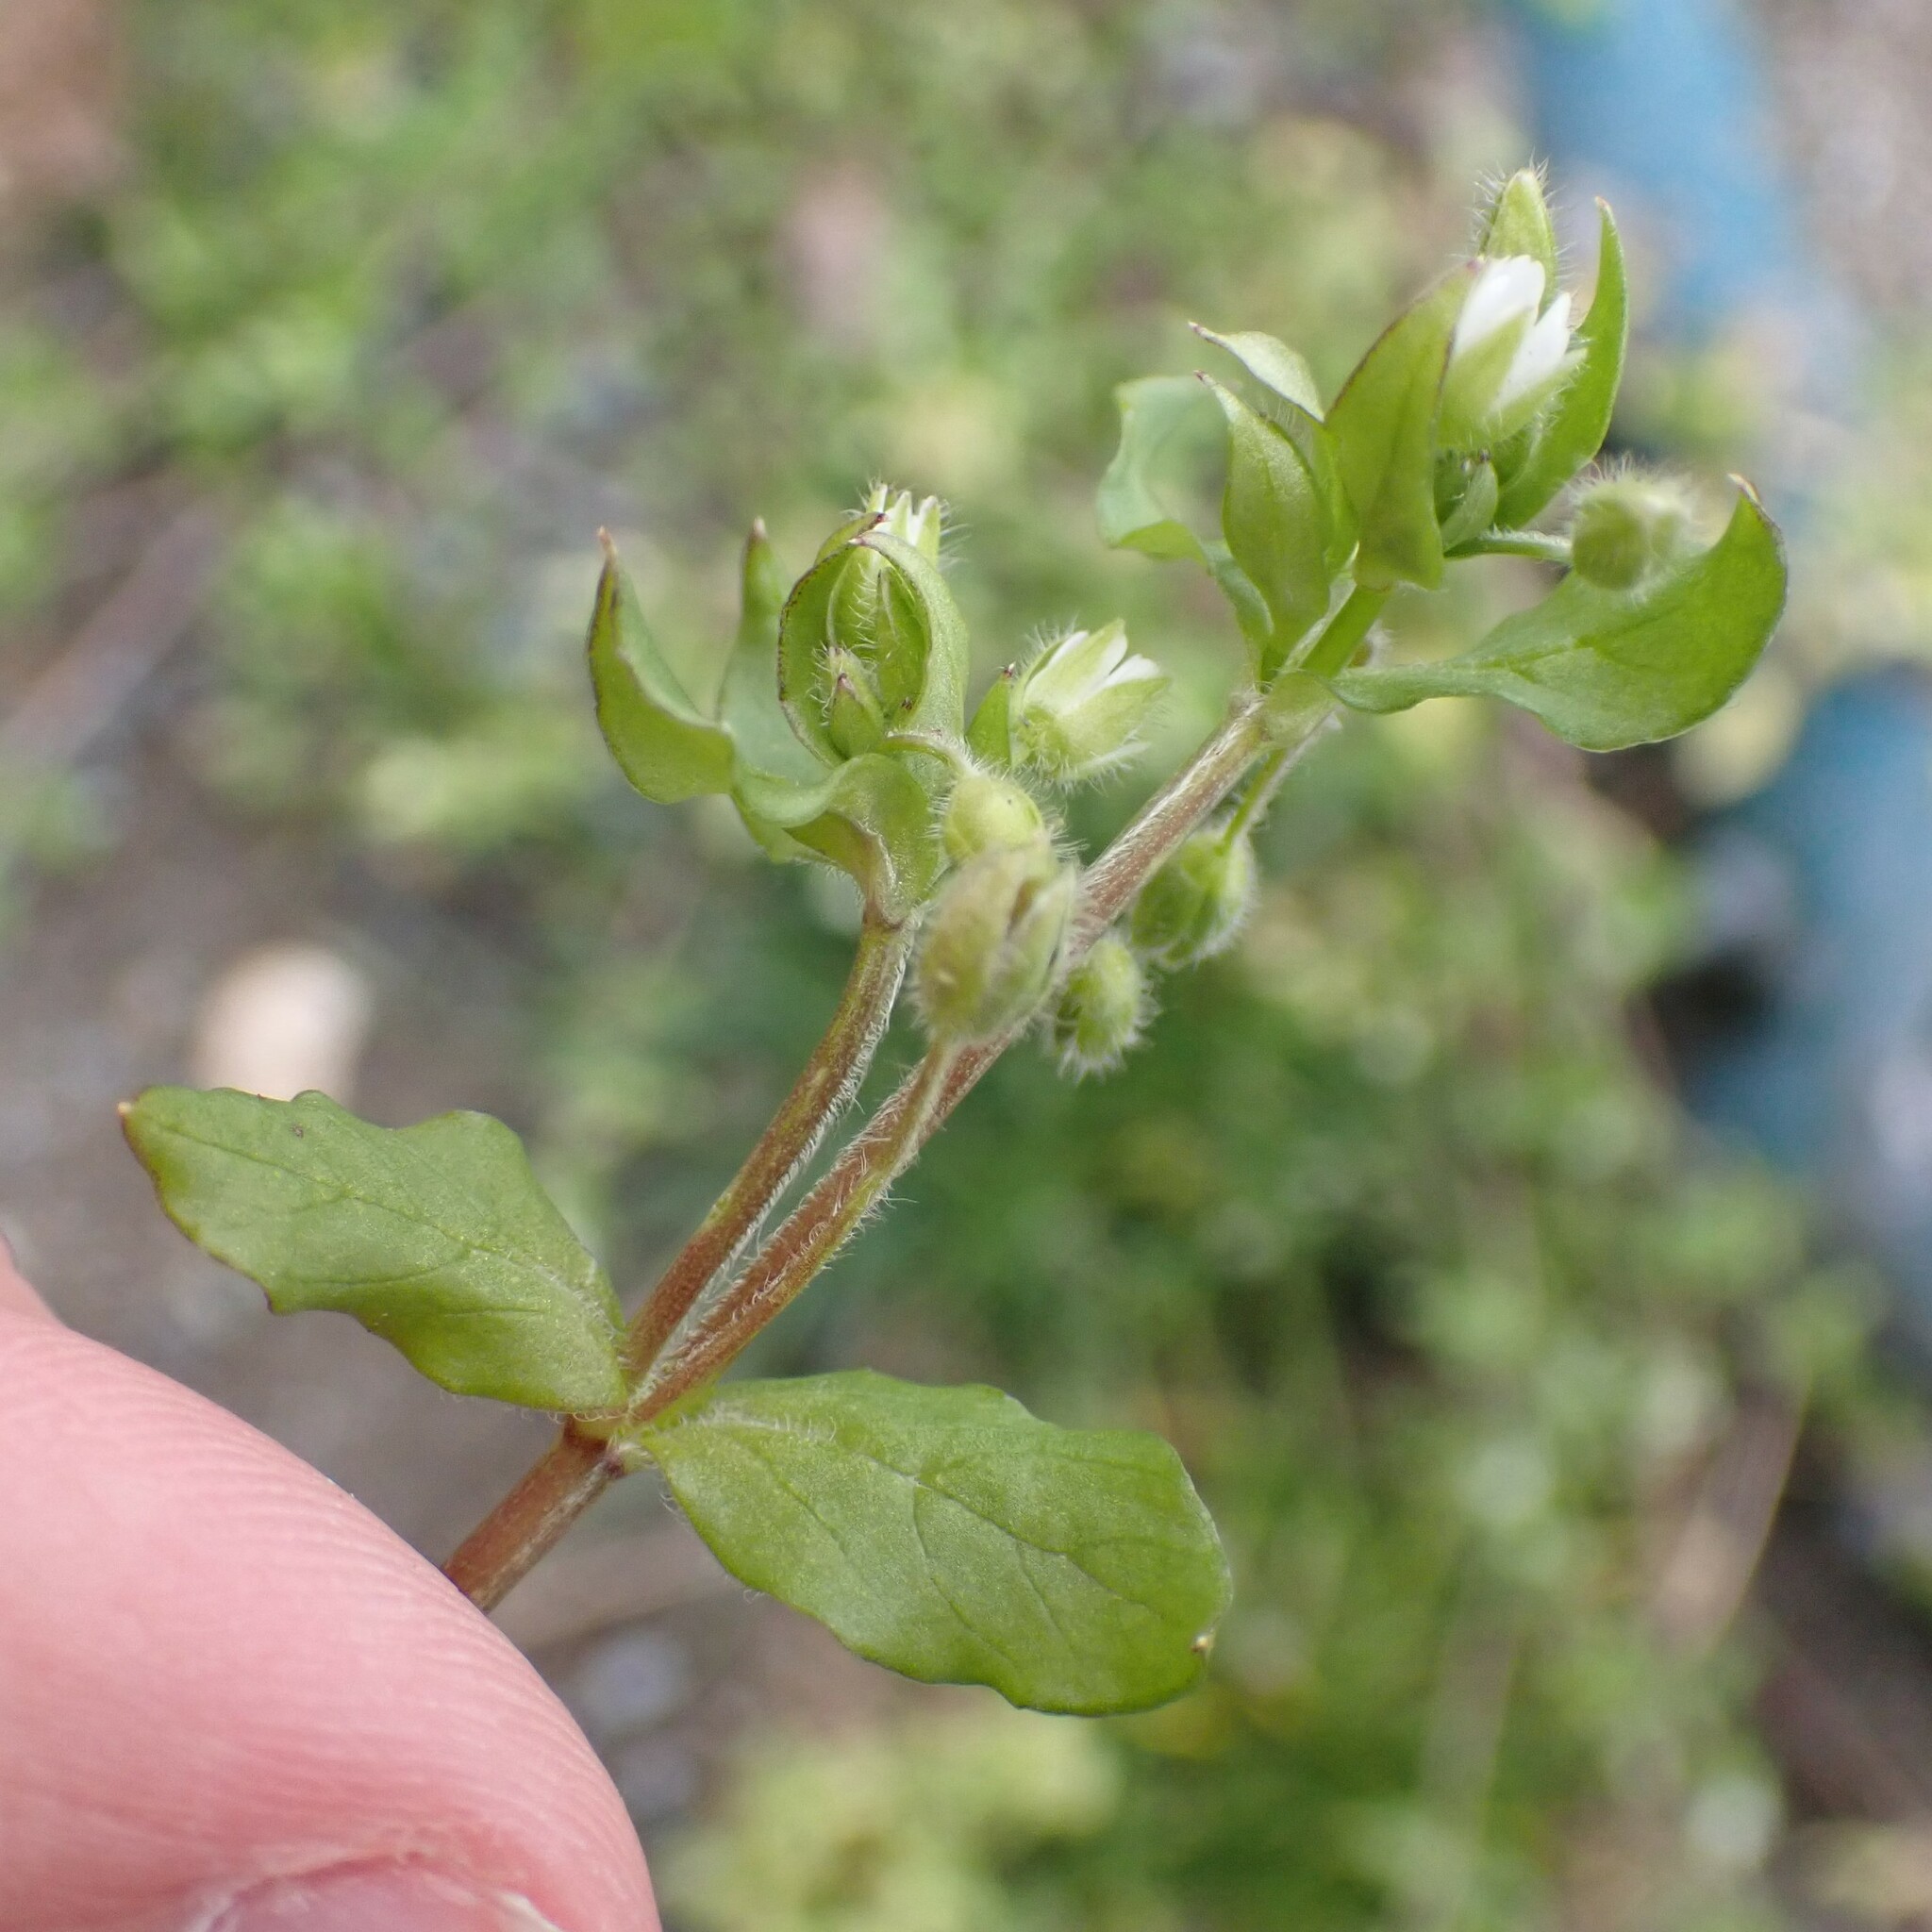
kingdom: Plantae
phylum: Tracheophyta
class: Magnoliopsida
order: Caryophyllales
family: Caryophyllaceae
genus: Stellaria
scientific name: Stellaria media
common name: Common chickweed
